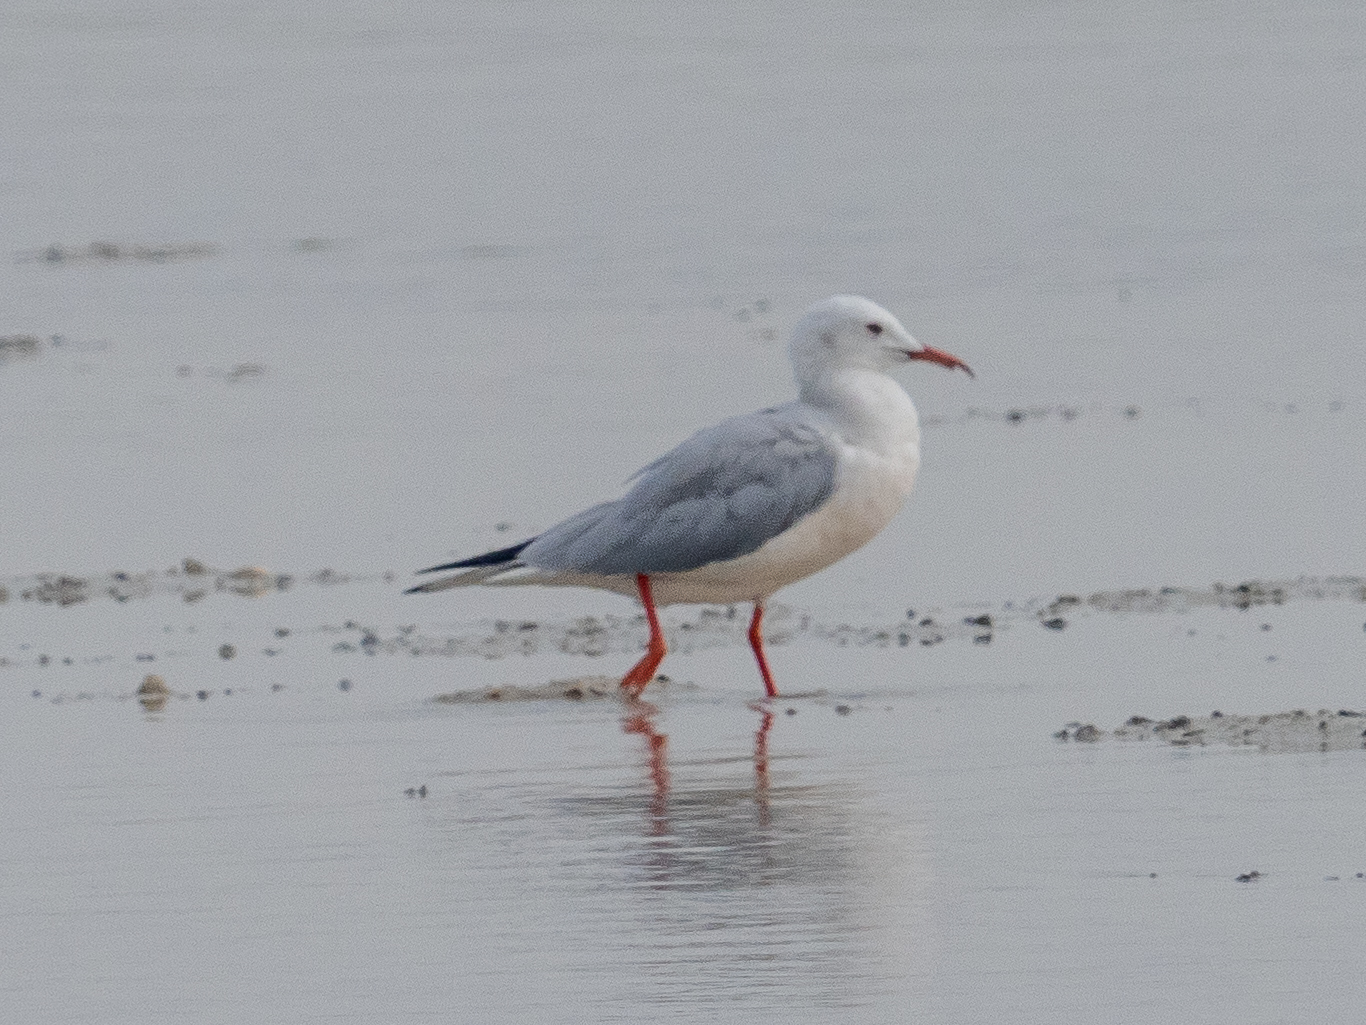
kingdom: Animalia
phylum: Chordata
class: Aves
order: Charadriiformes
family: Laridae
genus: Chroicocephalus
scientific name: Chroicocephalus genei
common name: Slender-billed gull
